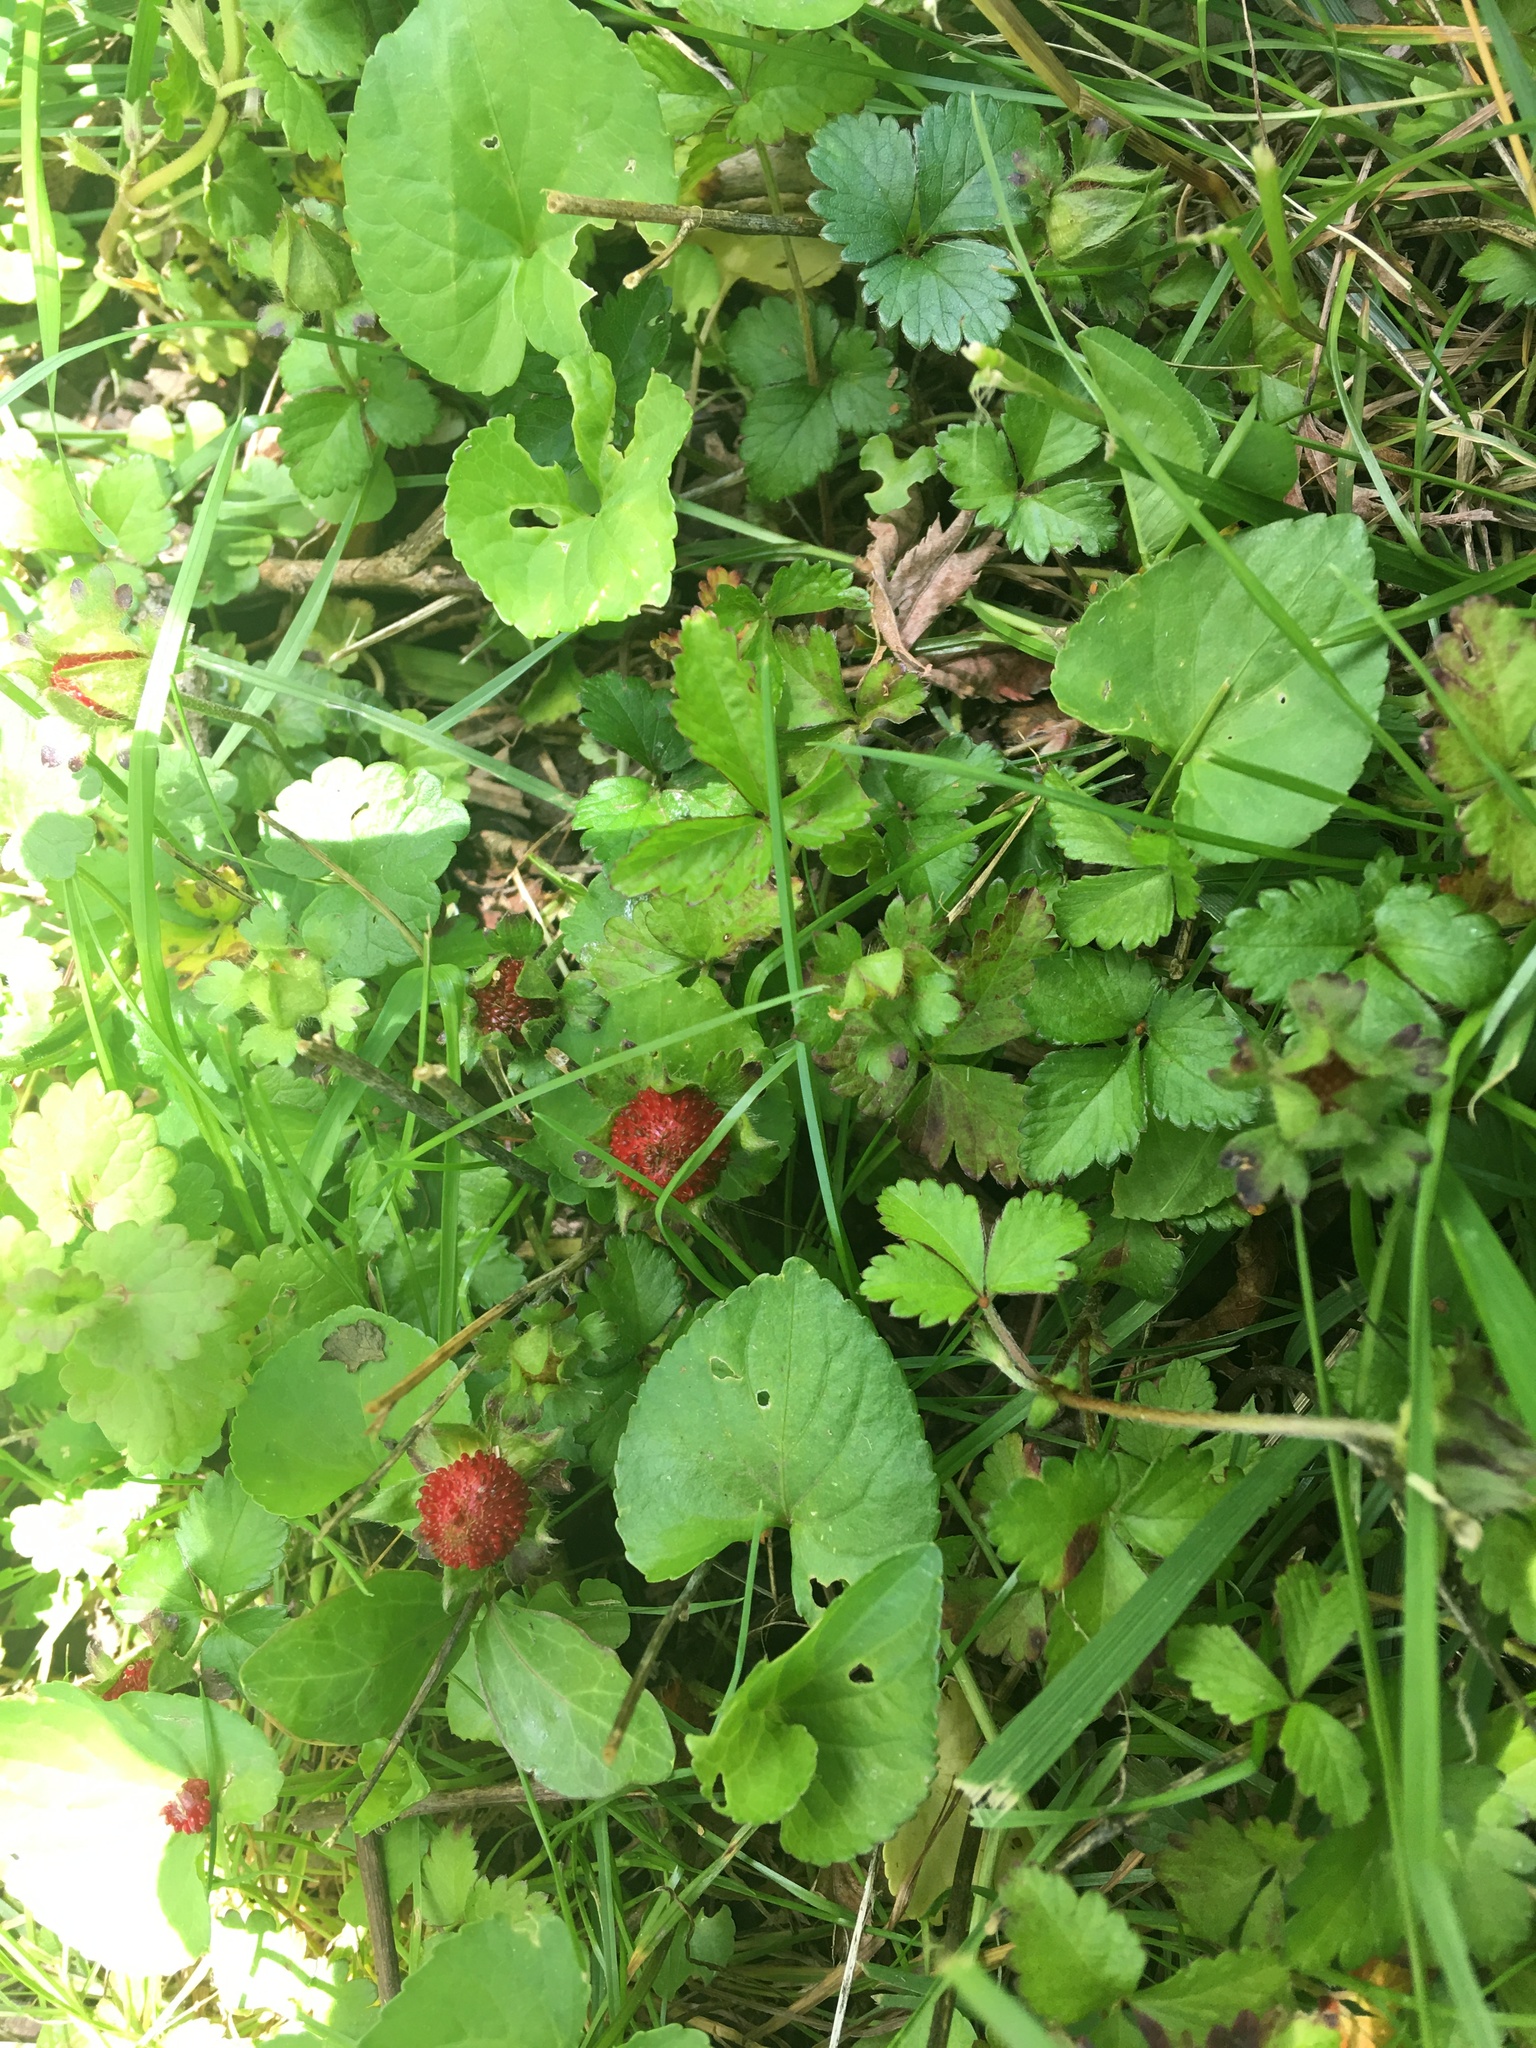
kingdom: Plantae
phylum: Tracheophyta
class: Magnoliopsida
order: Rosales
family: Rosaceae
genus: Potentilla
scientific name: Potentilla indica
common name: Yellow-flowered strawberry
